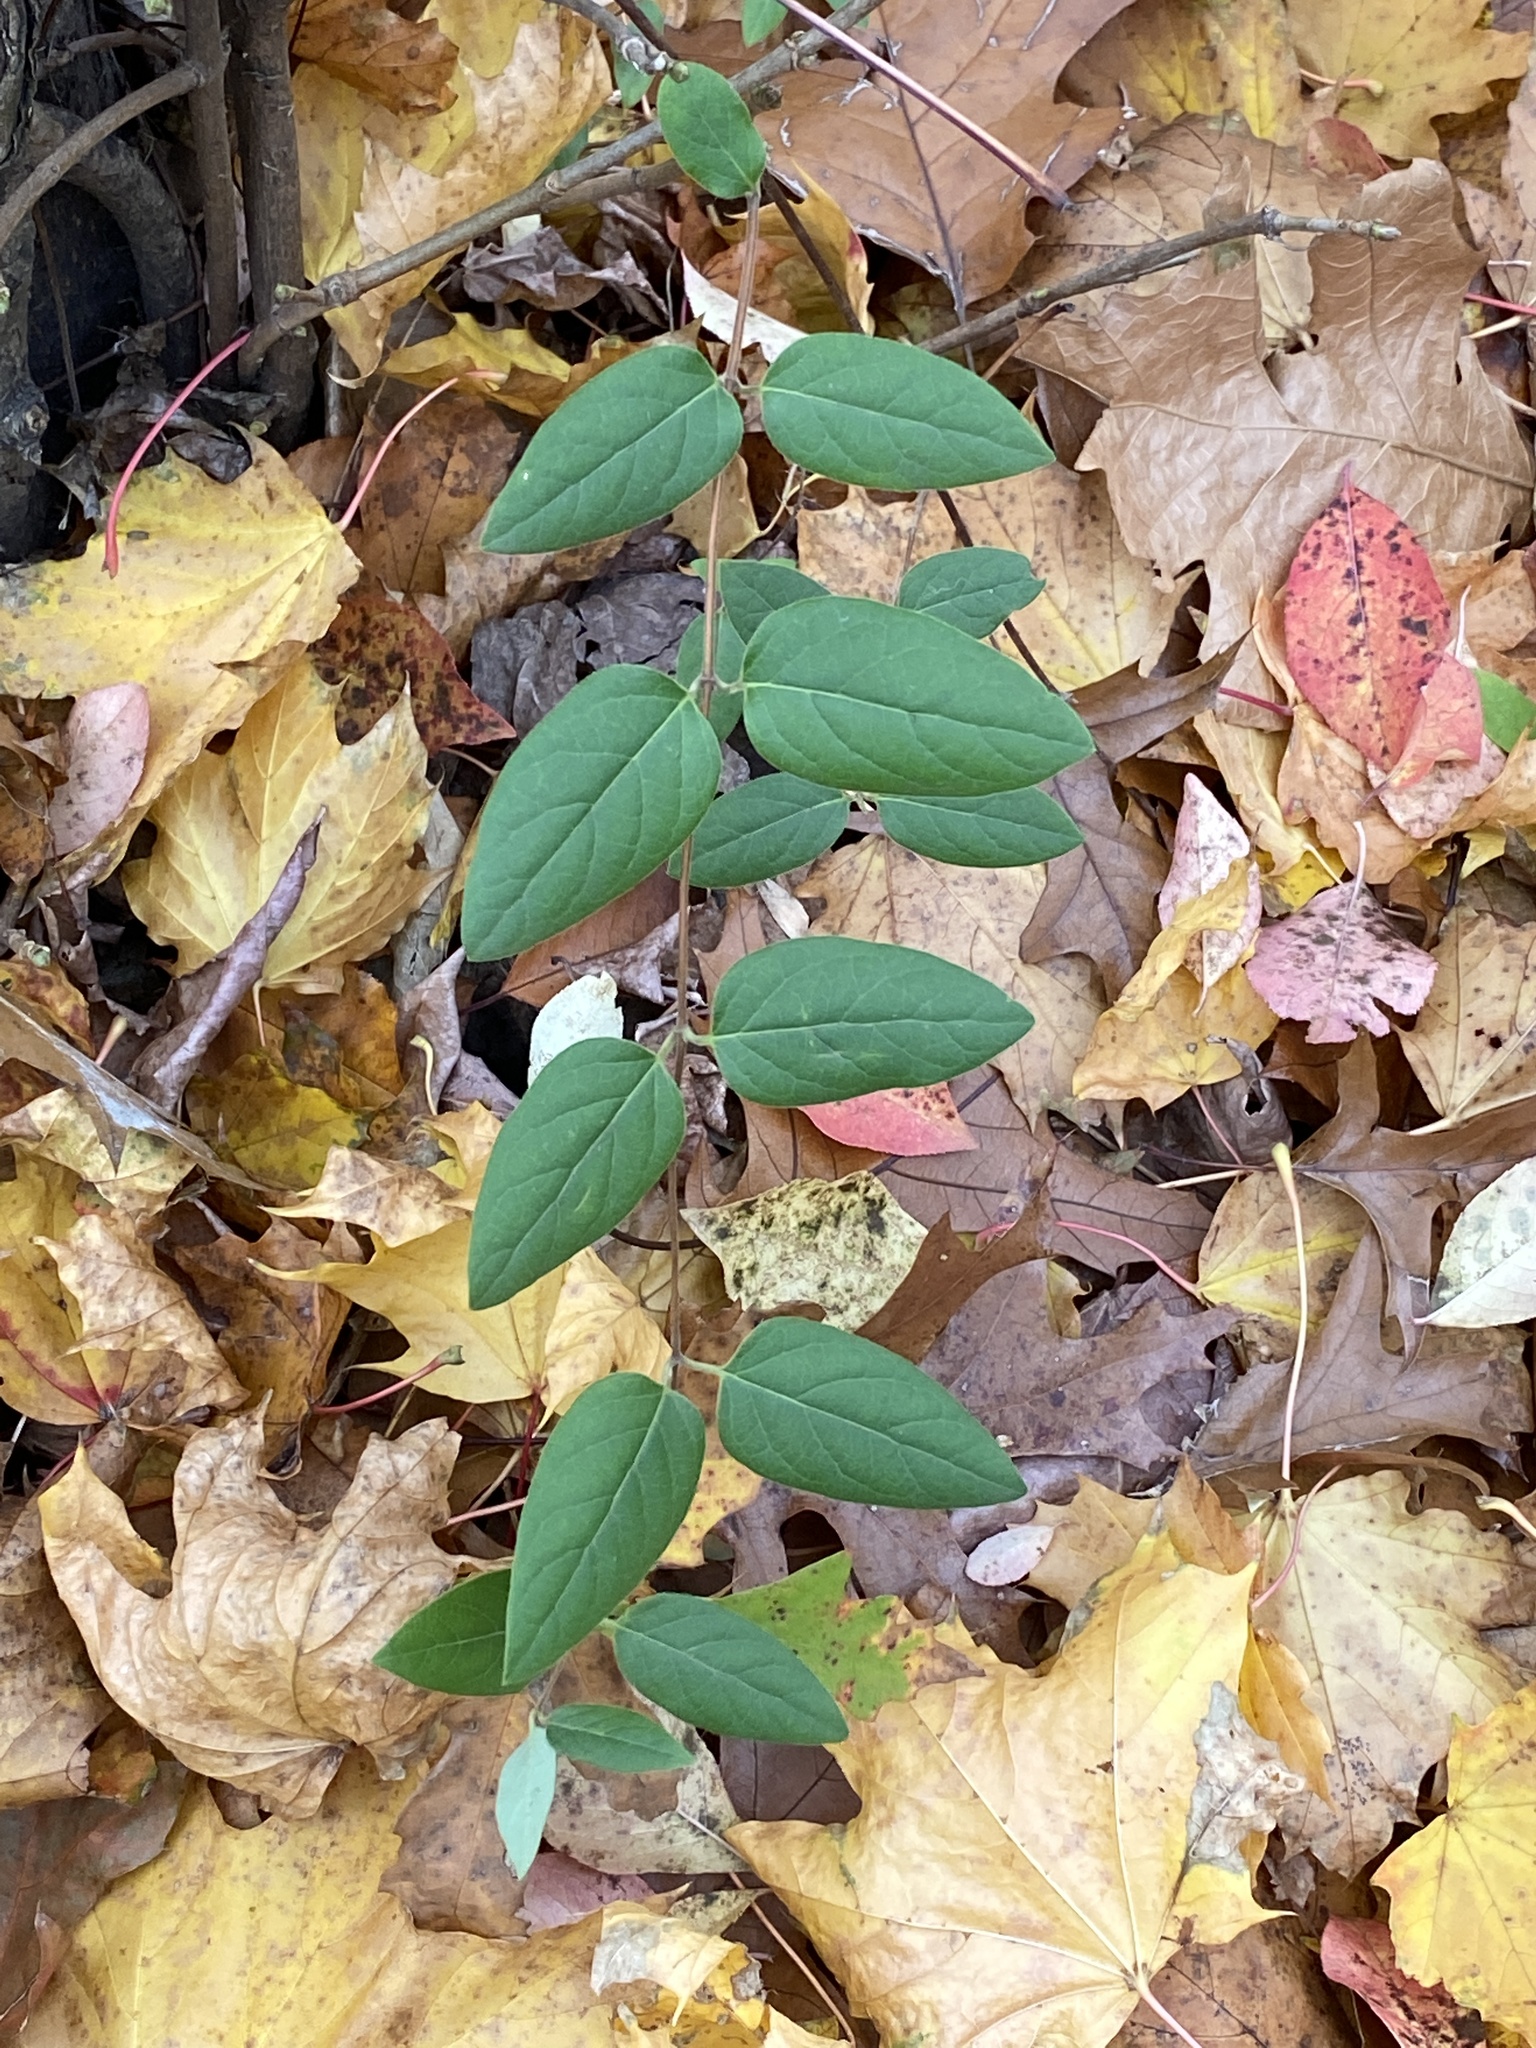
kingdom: Plantae
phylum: Tracheophyta
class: Magnoliopsida
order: Dipsacales
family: Caprifoliaceae
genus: Lonicera
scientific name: Lonicera japonica
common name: Japanese honeysuckle
